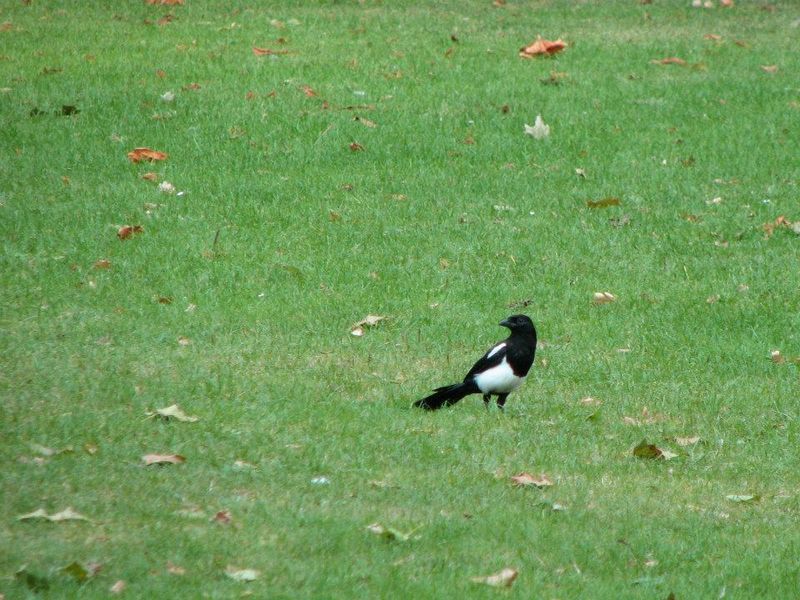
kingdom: Animalia
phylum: Chordata
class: Aves
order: Passeriformes
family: Corvidae
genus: Pica
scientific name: Pica pica
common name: Eurasian magpie
